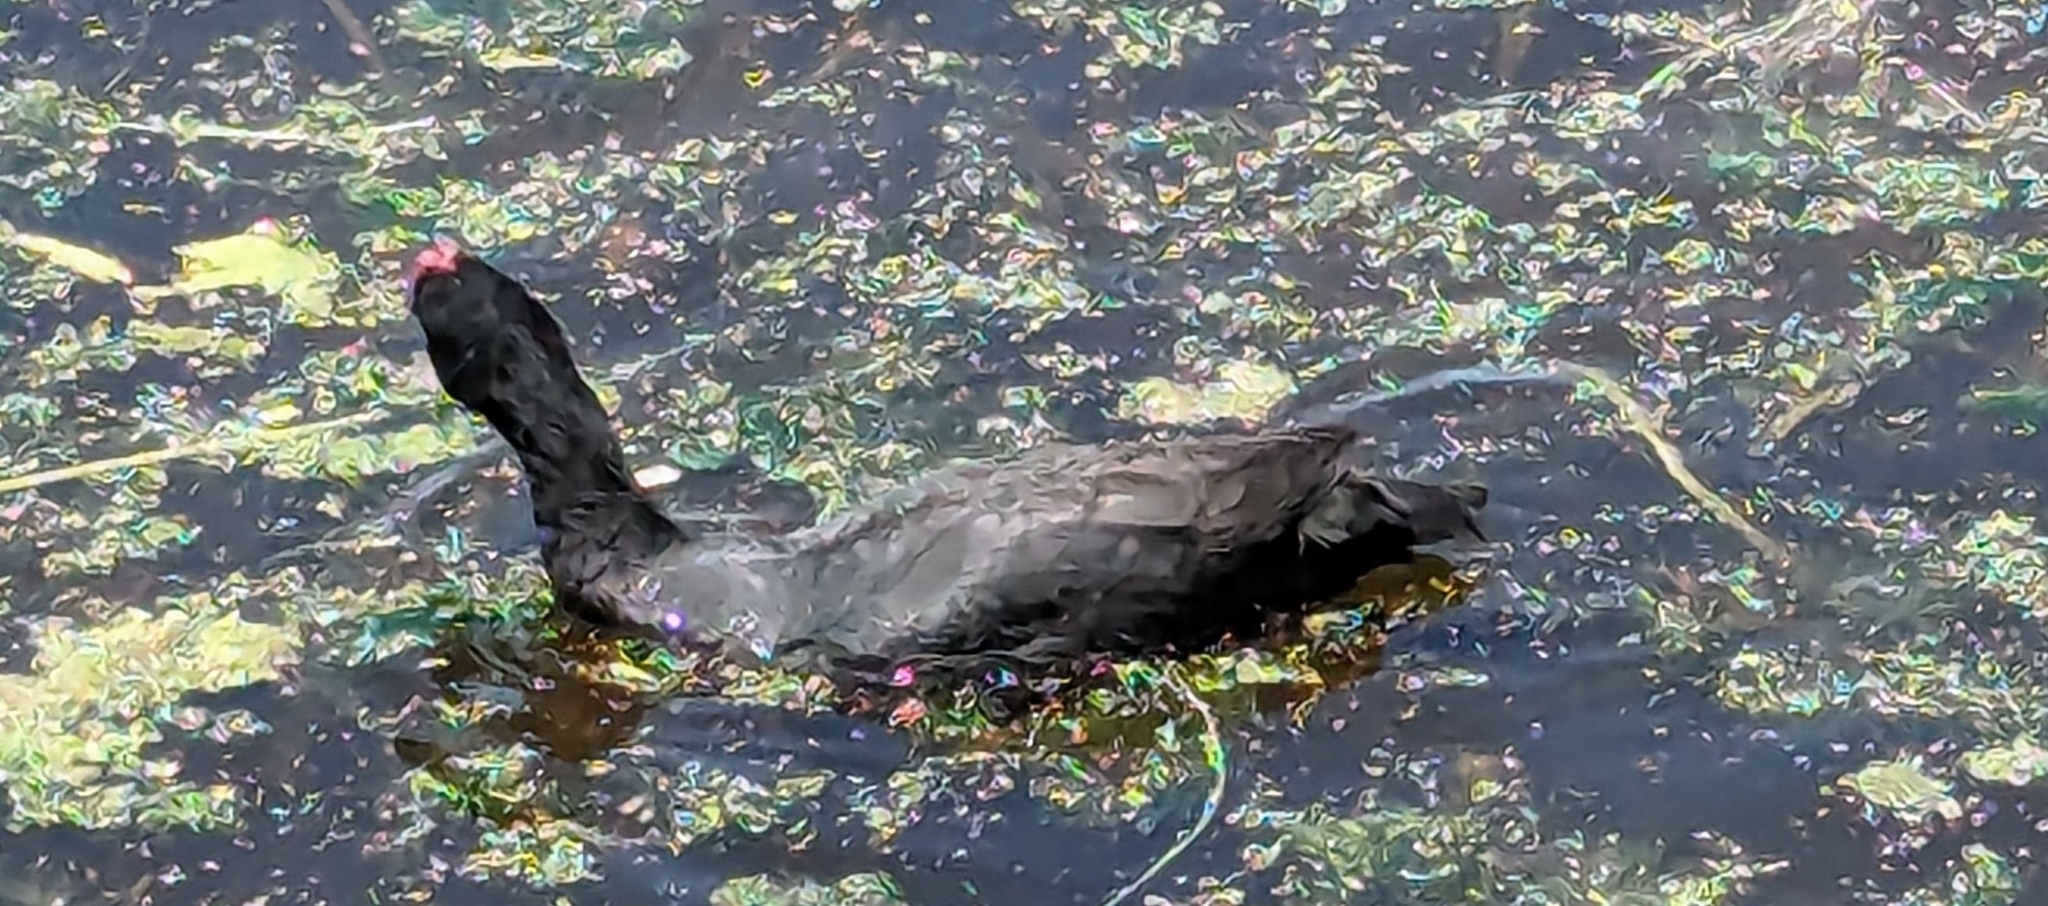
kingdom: Animalia
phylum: Chordata
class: Aves
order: Gruiformes
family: Rallidae
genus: Fulica
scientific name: Fulica cristata
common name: Red-knobbed coot
